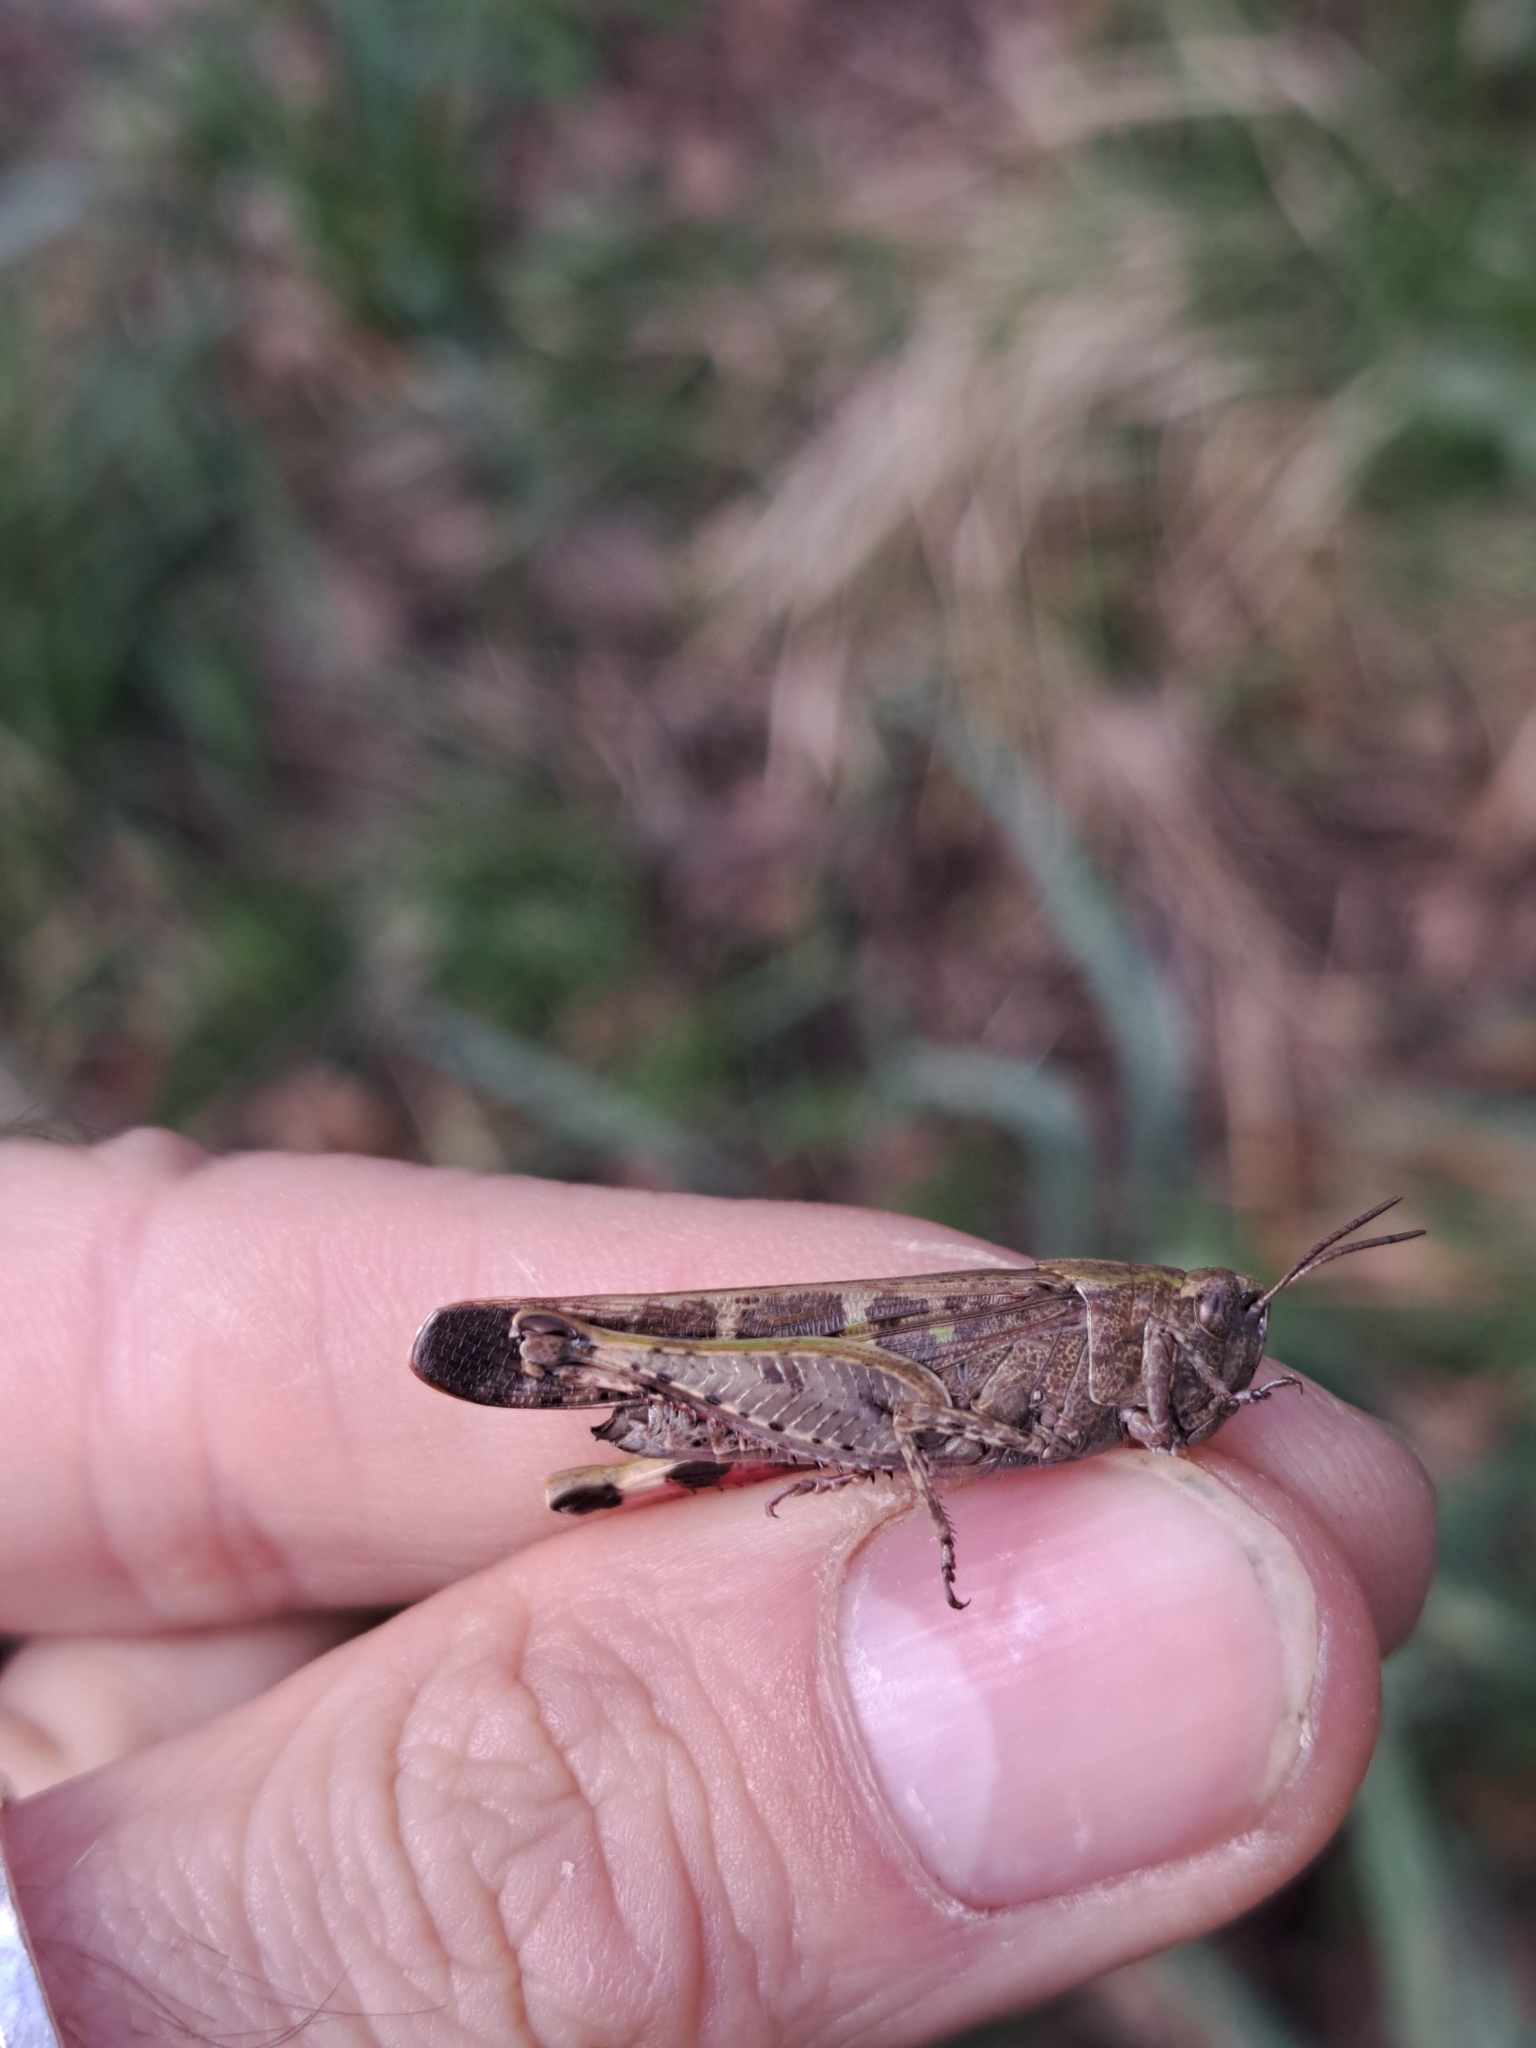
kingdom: Animalia
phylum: Arthropoda
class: Insecta
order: Orthoptera
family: Acrididae
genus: Aiolopus
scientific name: Aiolopus strepens
